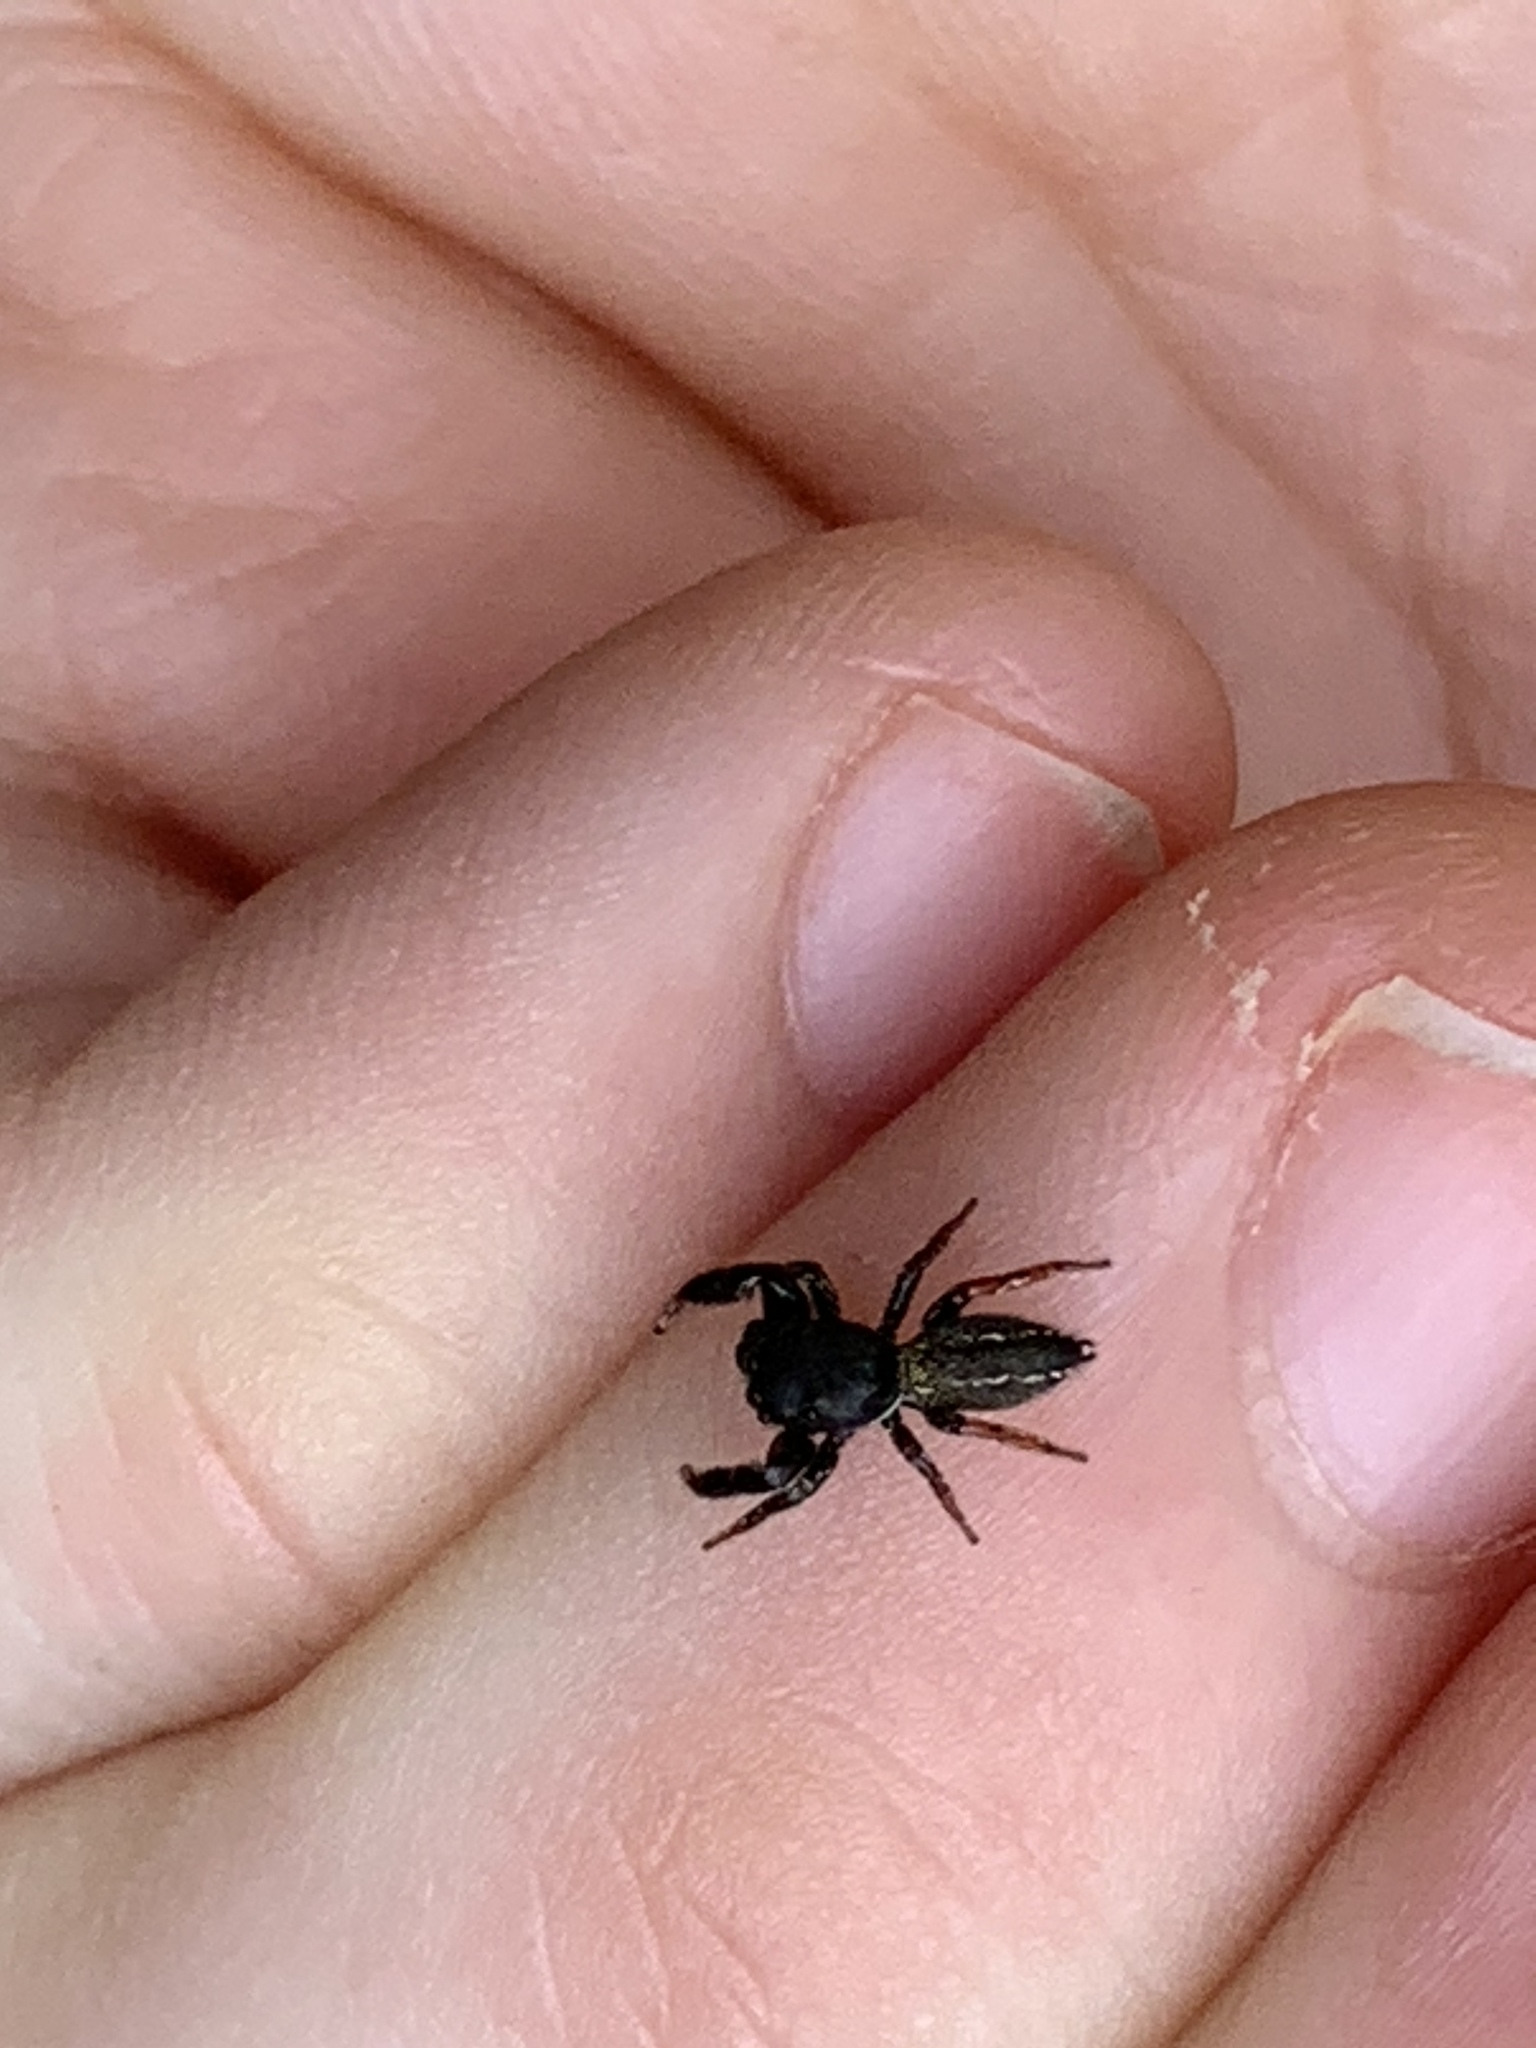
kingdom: Animalia
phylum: Arthropoda
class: Arachnida
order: Araneae
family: Salticidae
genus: Metacyrba
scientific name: Metacyrba taeniola
